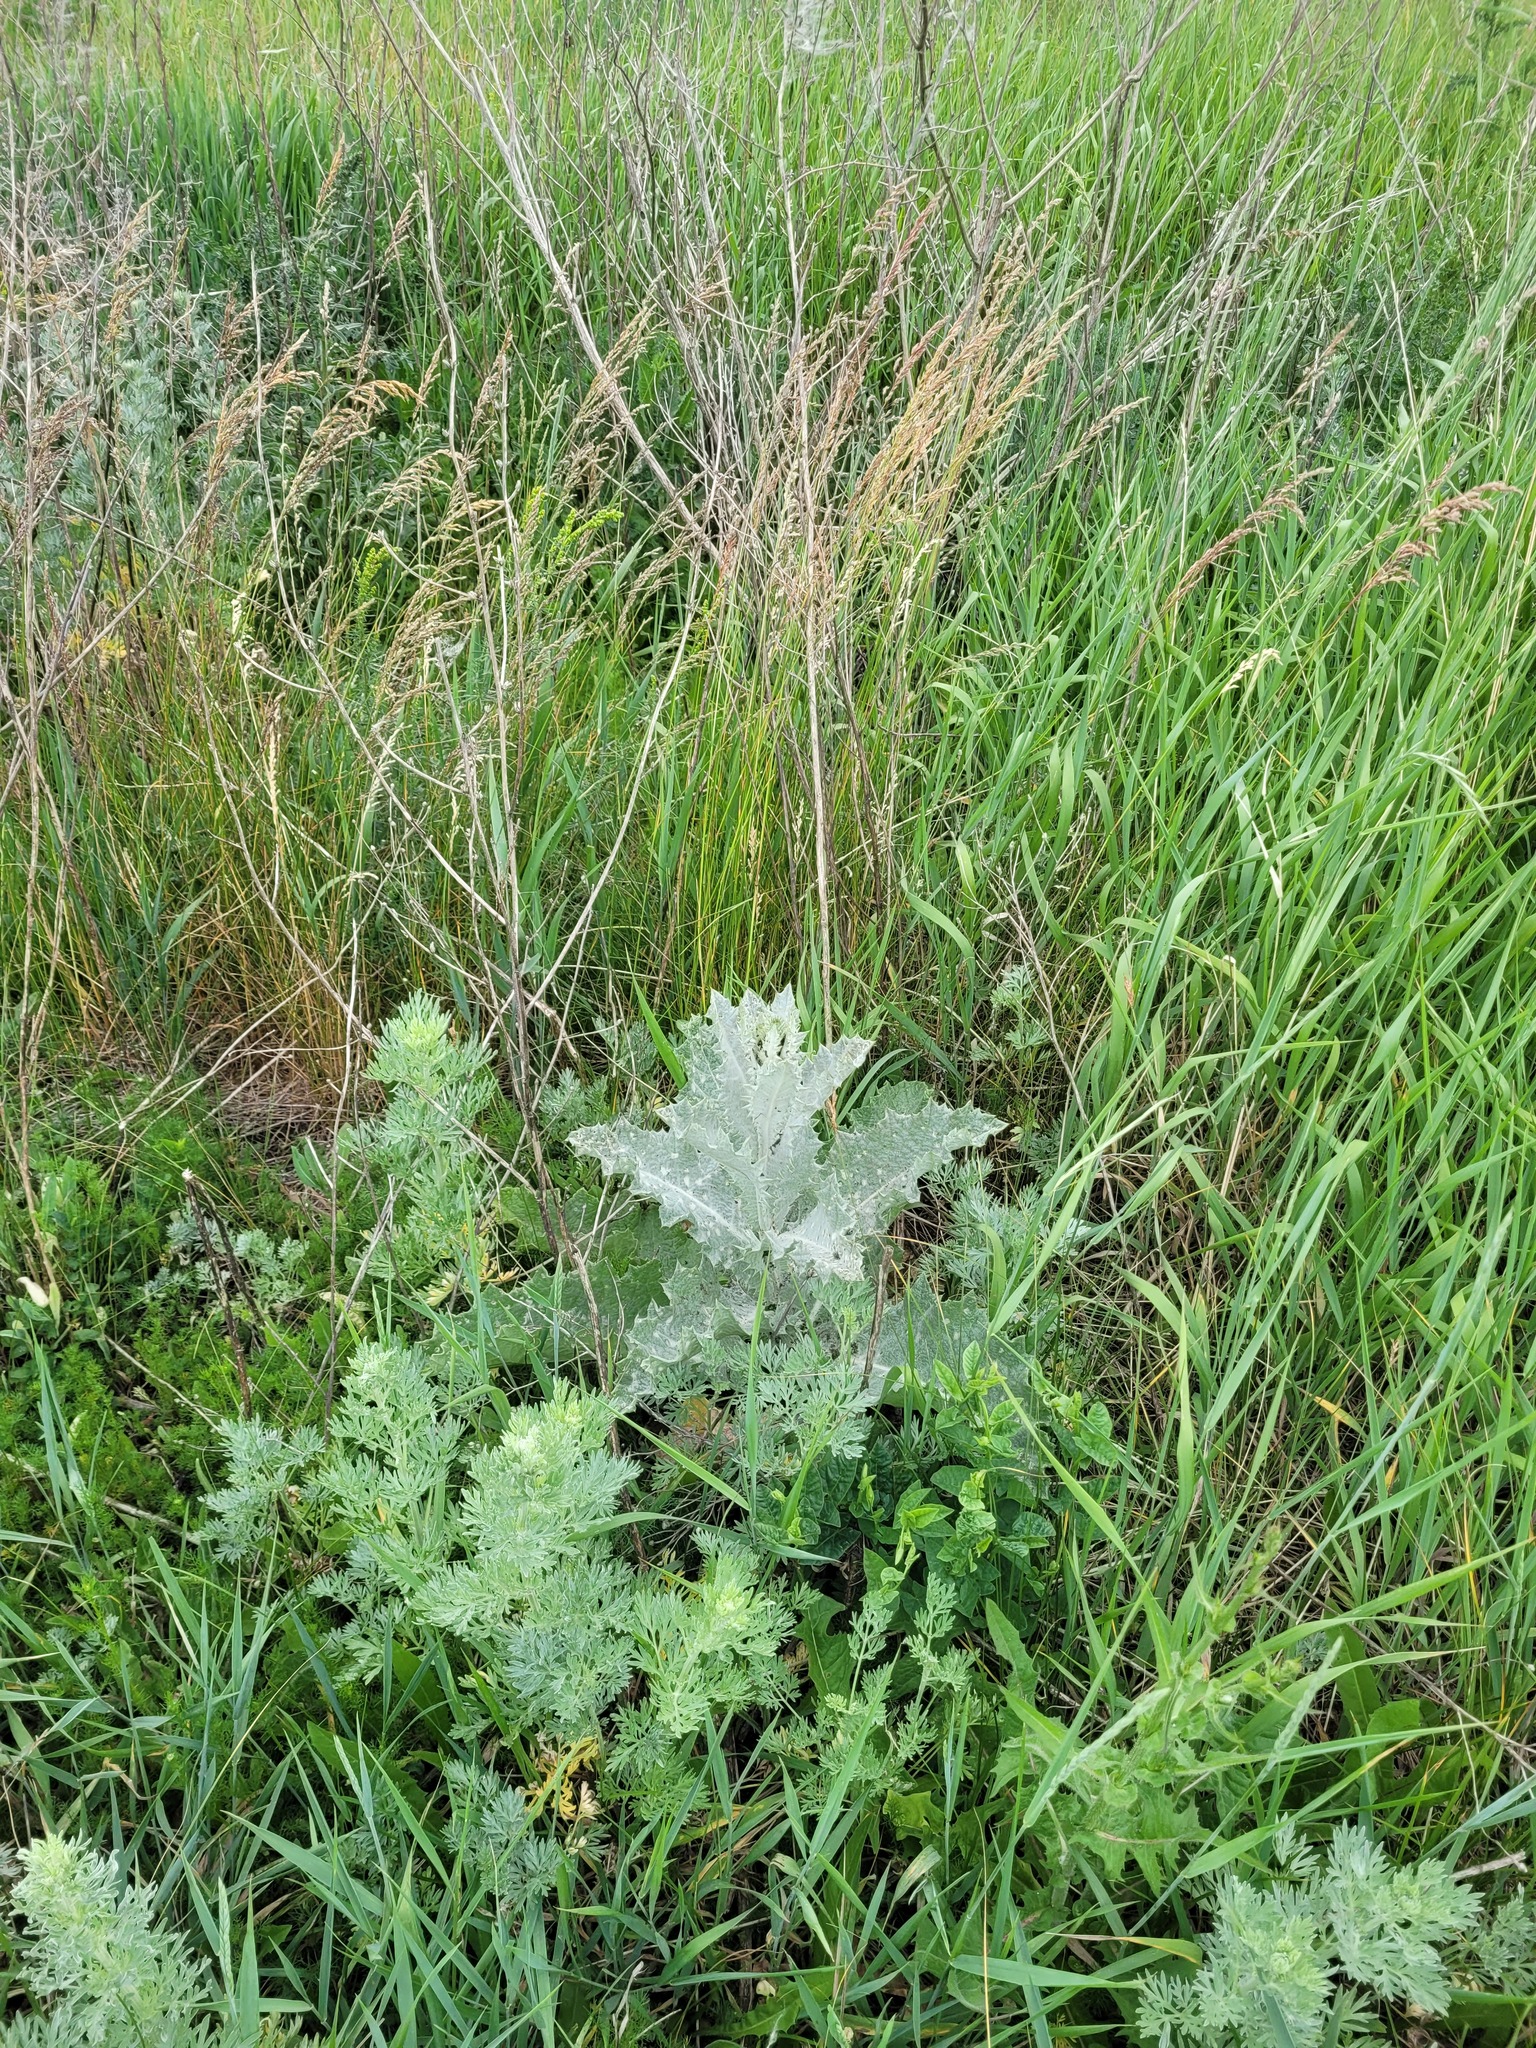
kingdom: Plantae
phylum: Tracheophyta
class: Magnoliopsida
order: Asterales
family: Asteraceae
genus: Onopordum
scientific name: Onopordum acanthium
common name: Scotch thistle
